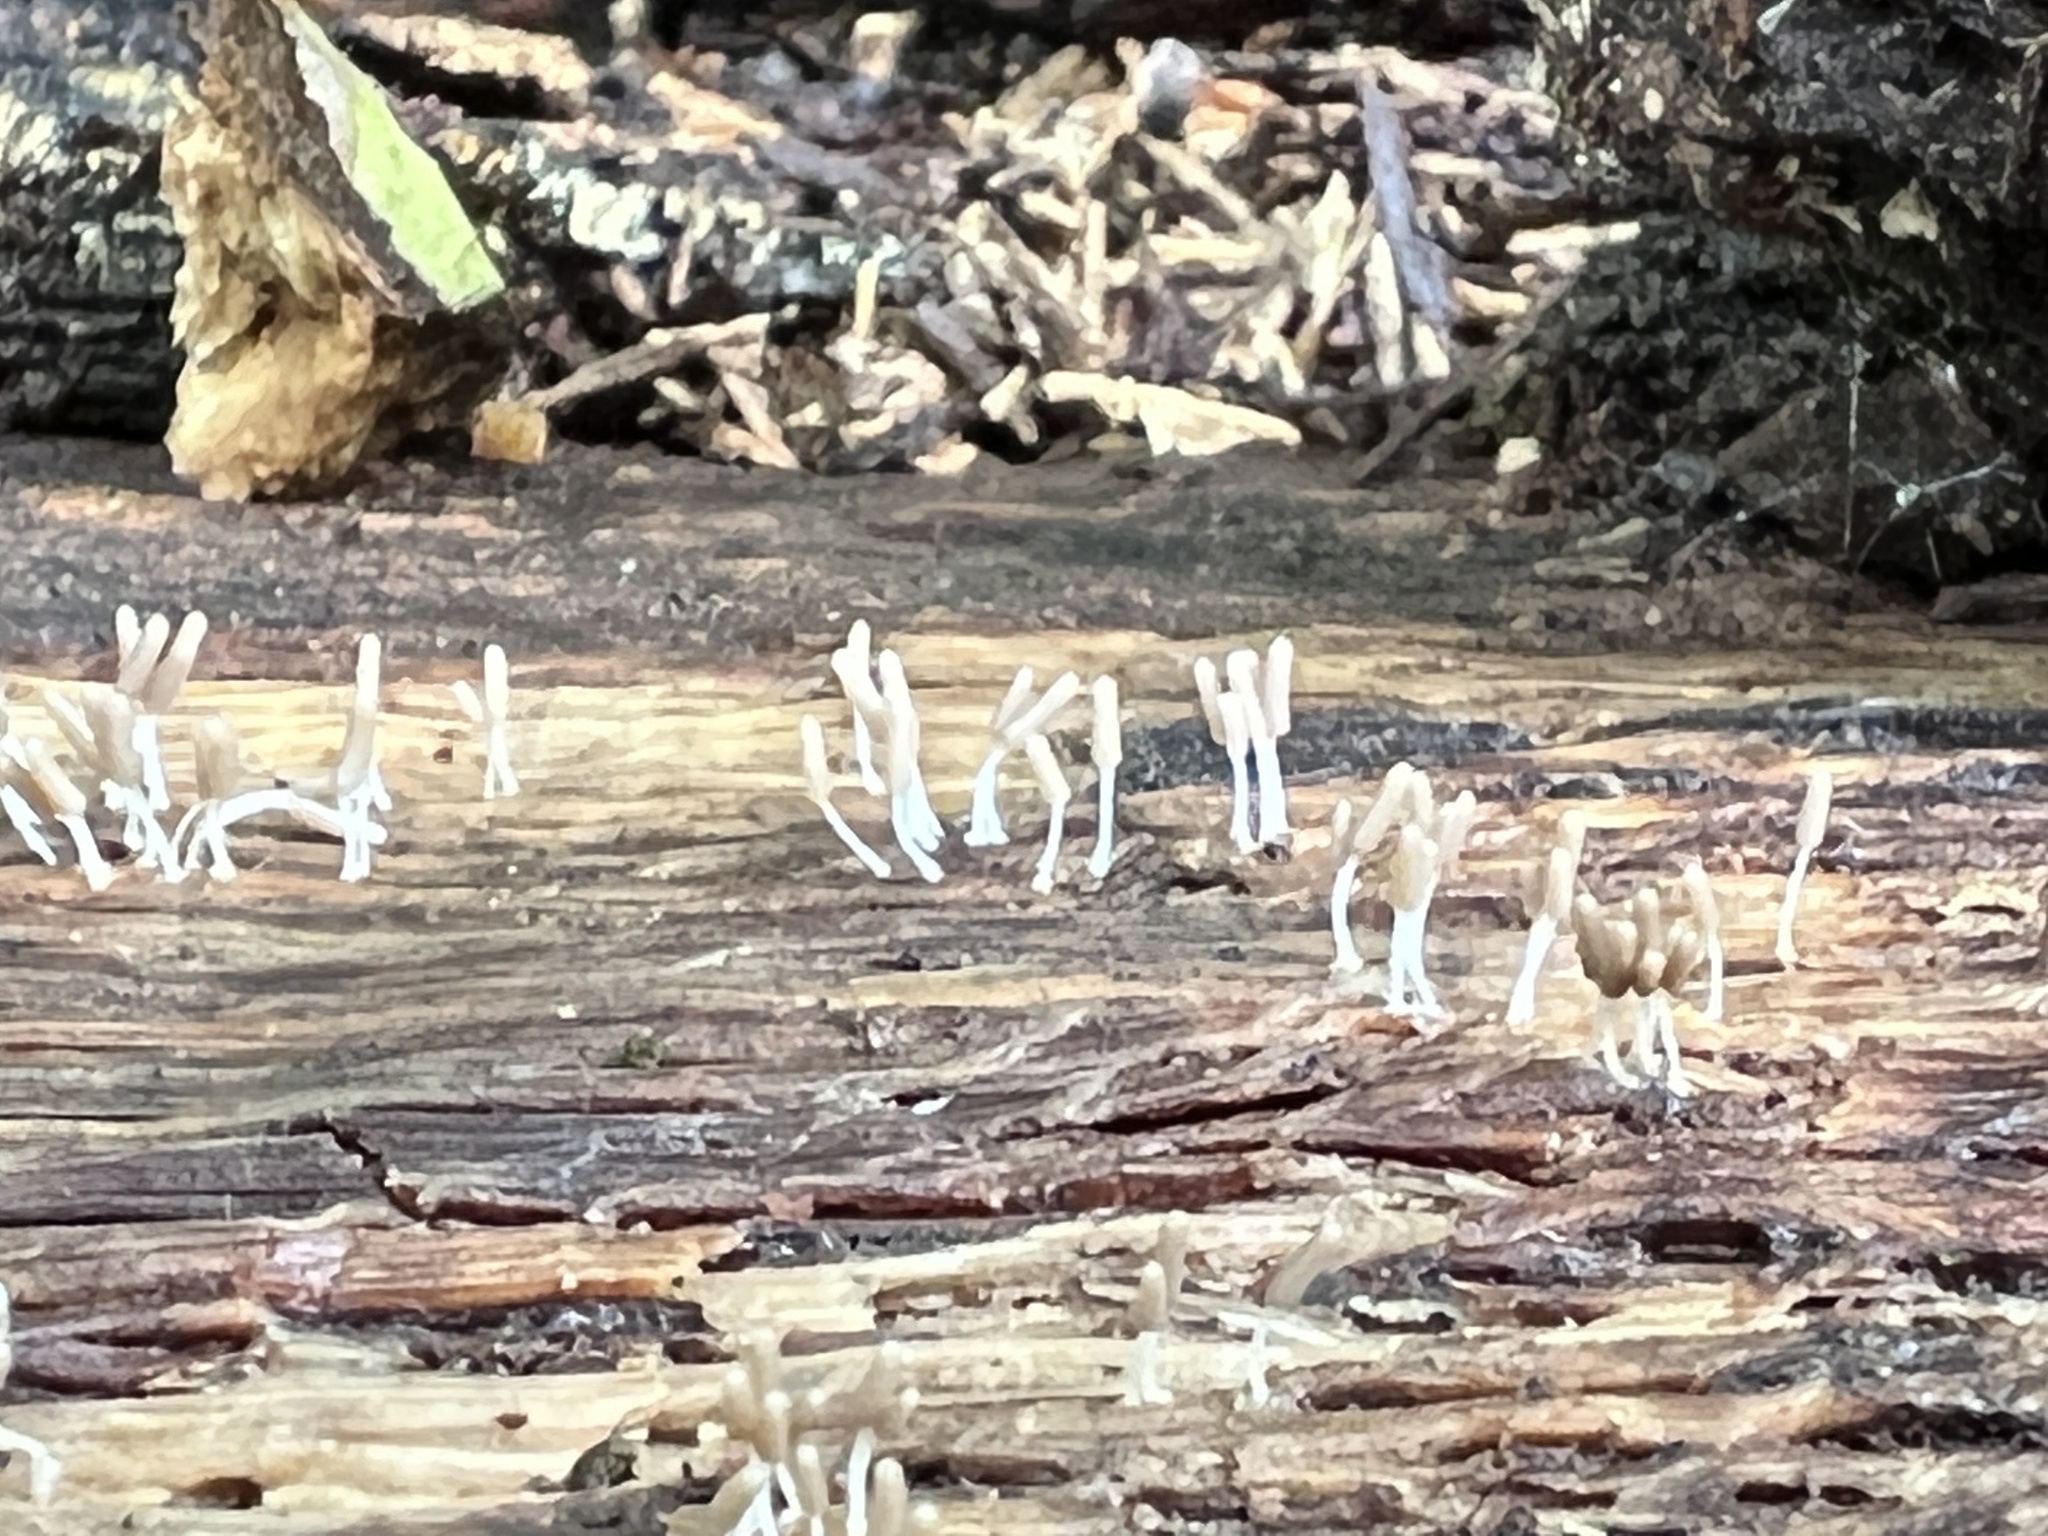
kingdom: Protozoa
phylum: Mycetozoa
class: Myxomycetes
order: Stemonitidales
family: Stemonitidaceae
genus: Stemonitopsis
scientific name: Stemonitopsis typhina
